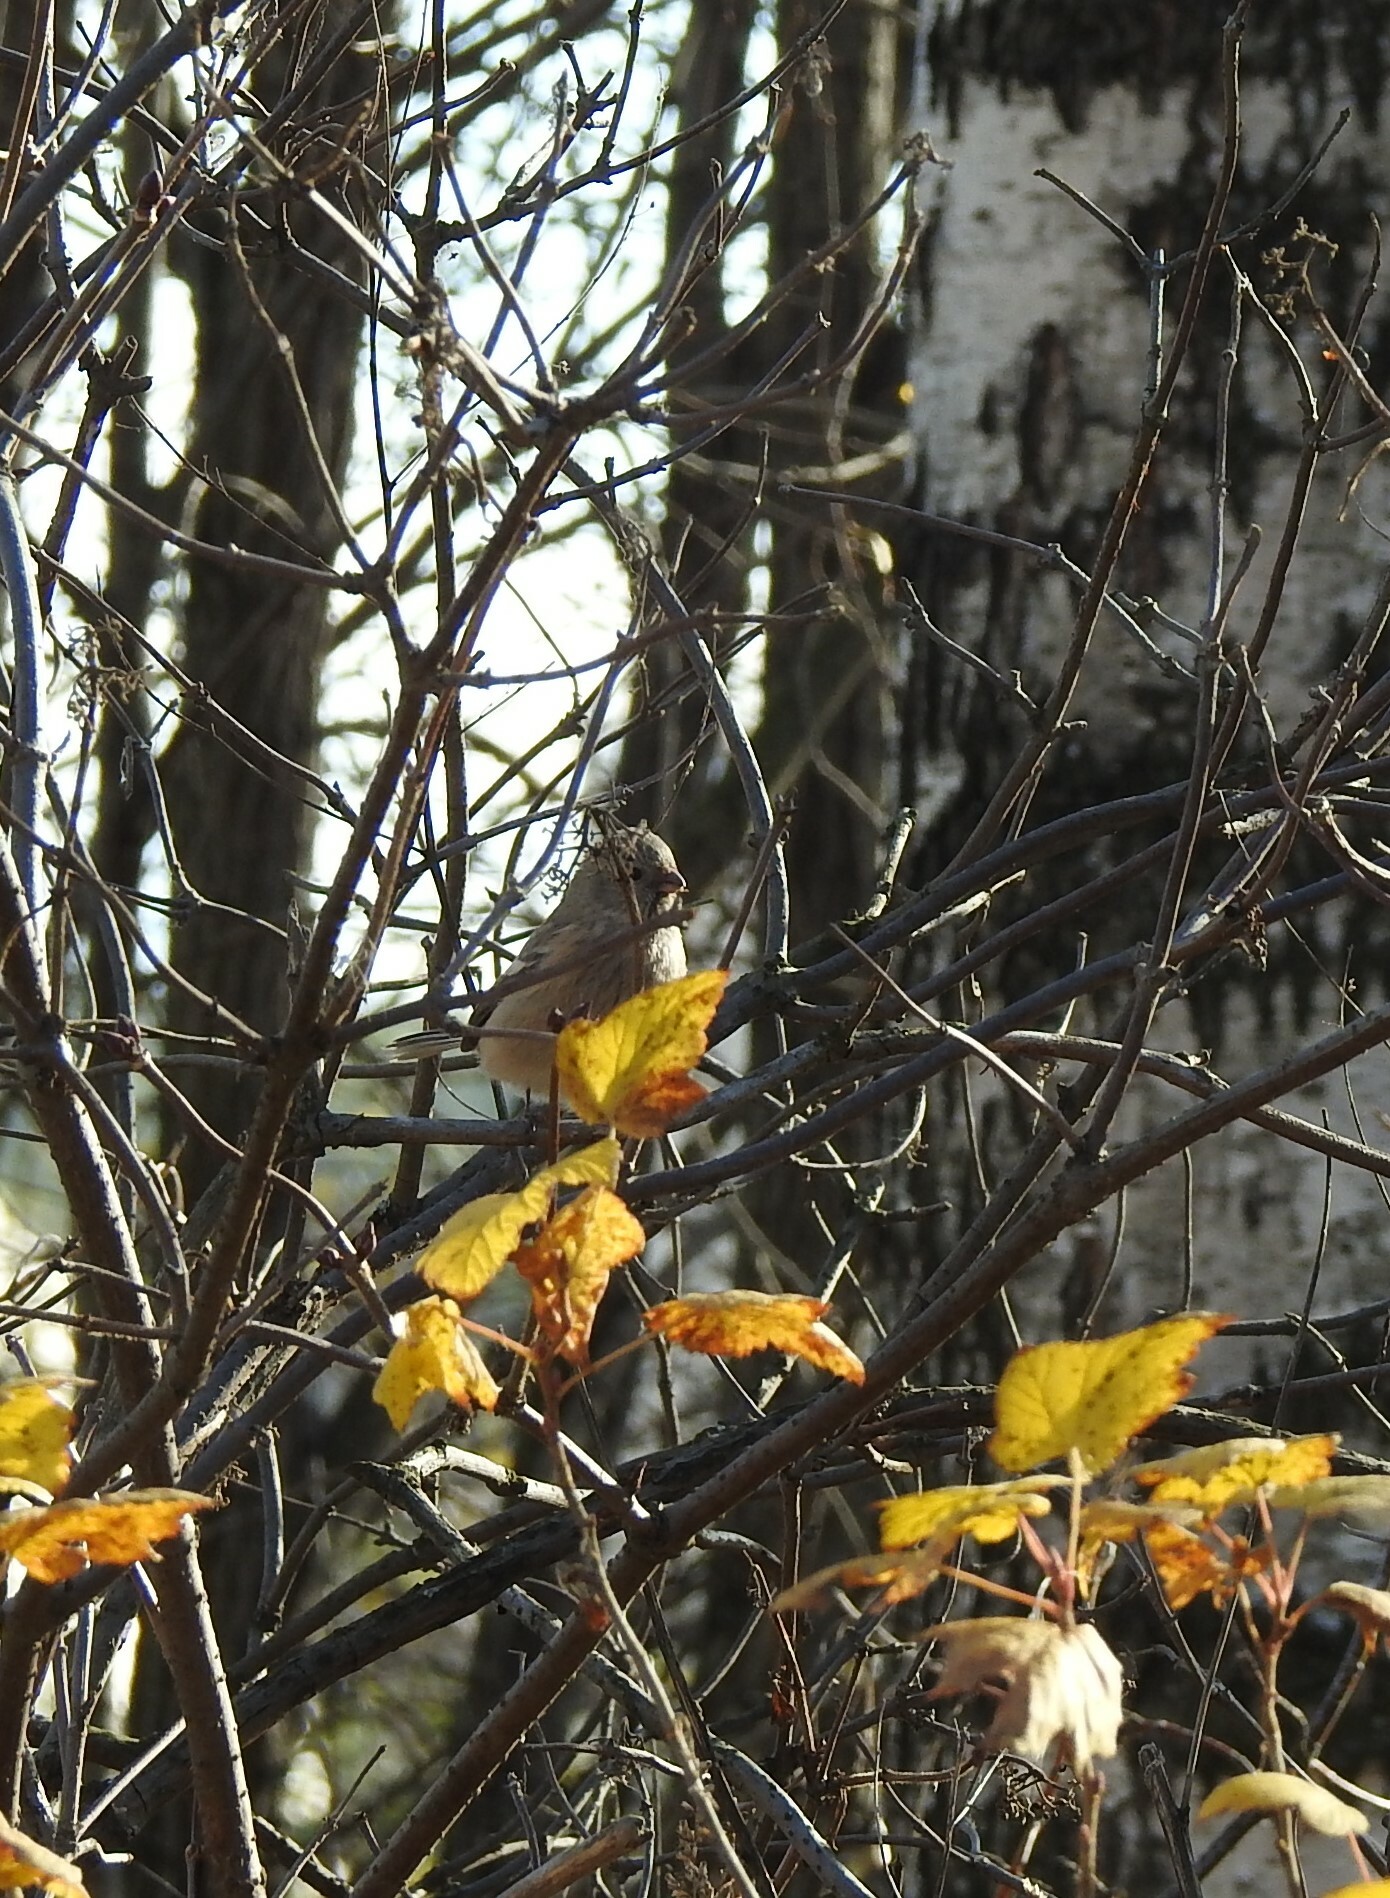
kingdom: Animalia
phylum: Chordata
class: Aves
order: Passeriformes
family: Fringillidae
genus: Carpodacus
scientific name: Carpodacus sibiricus
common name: Long-tailed rosefinch
